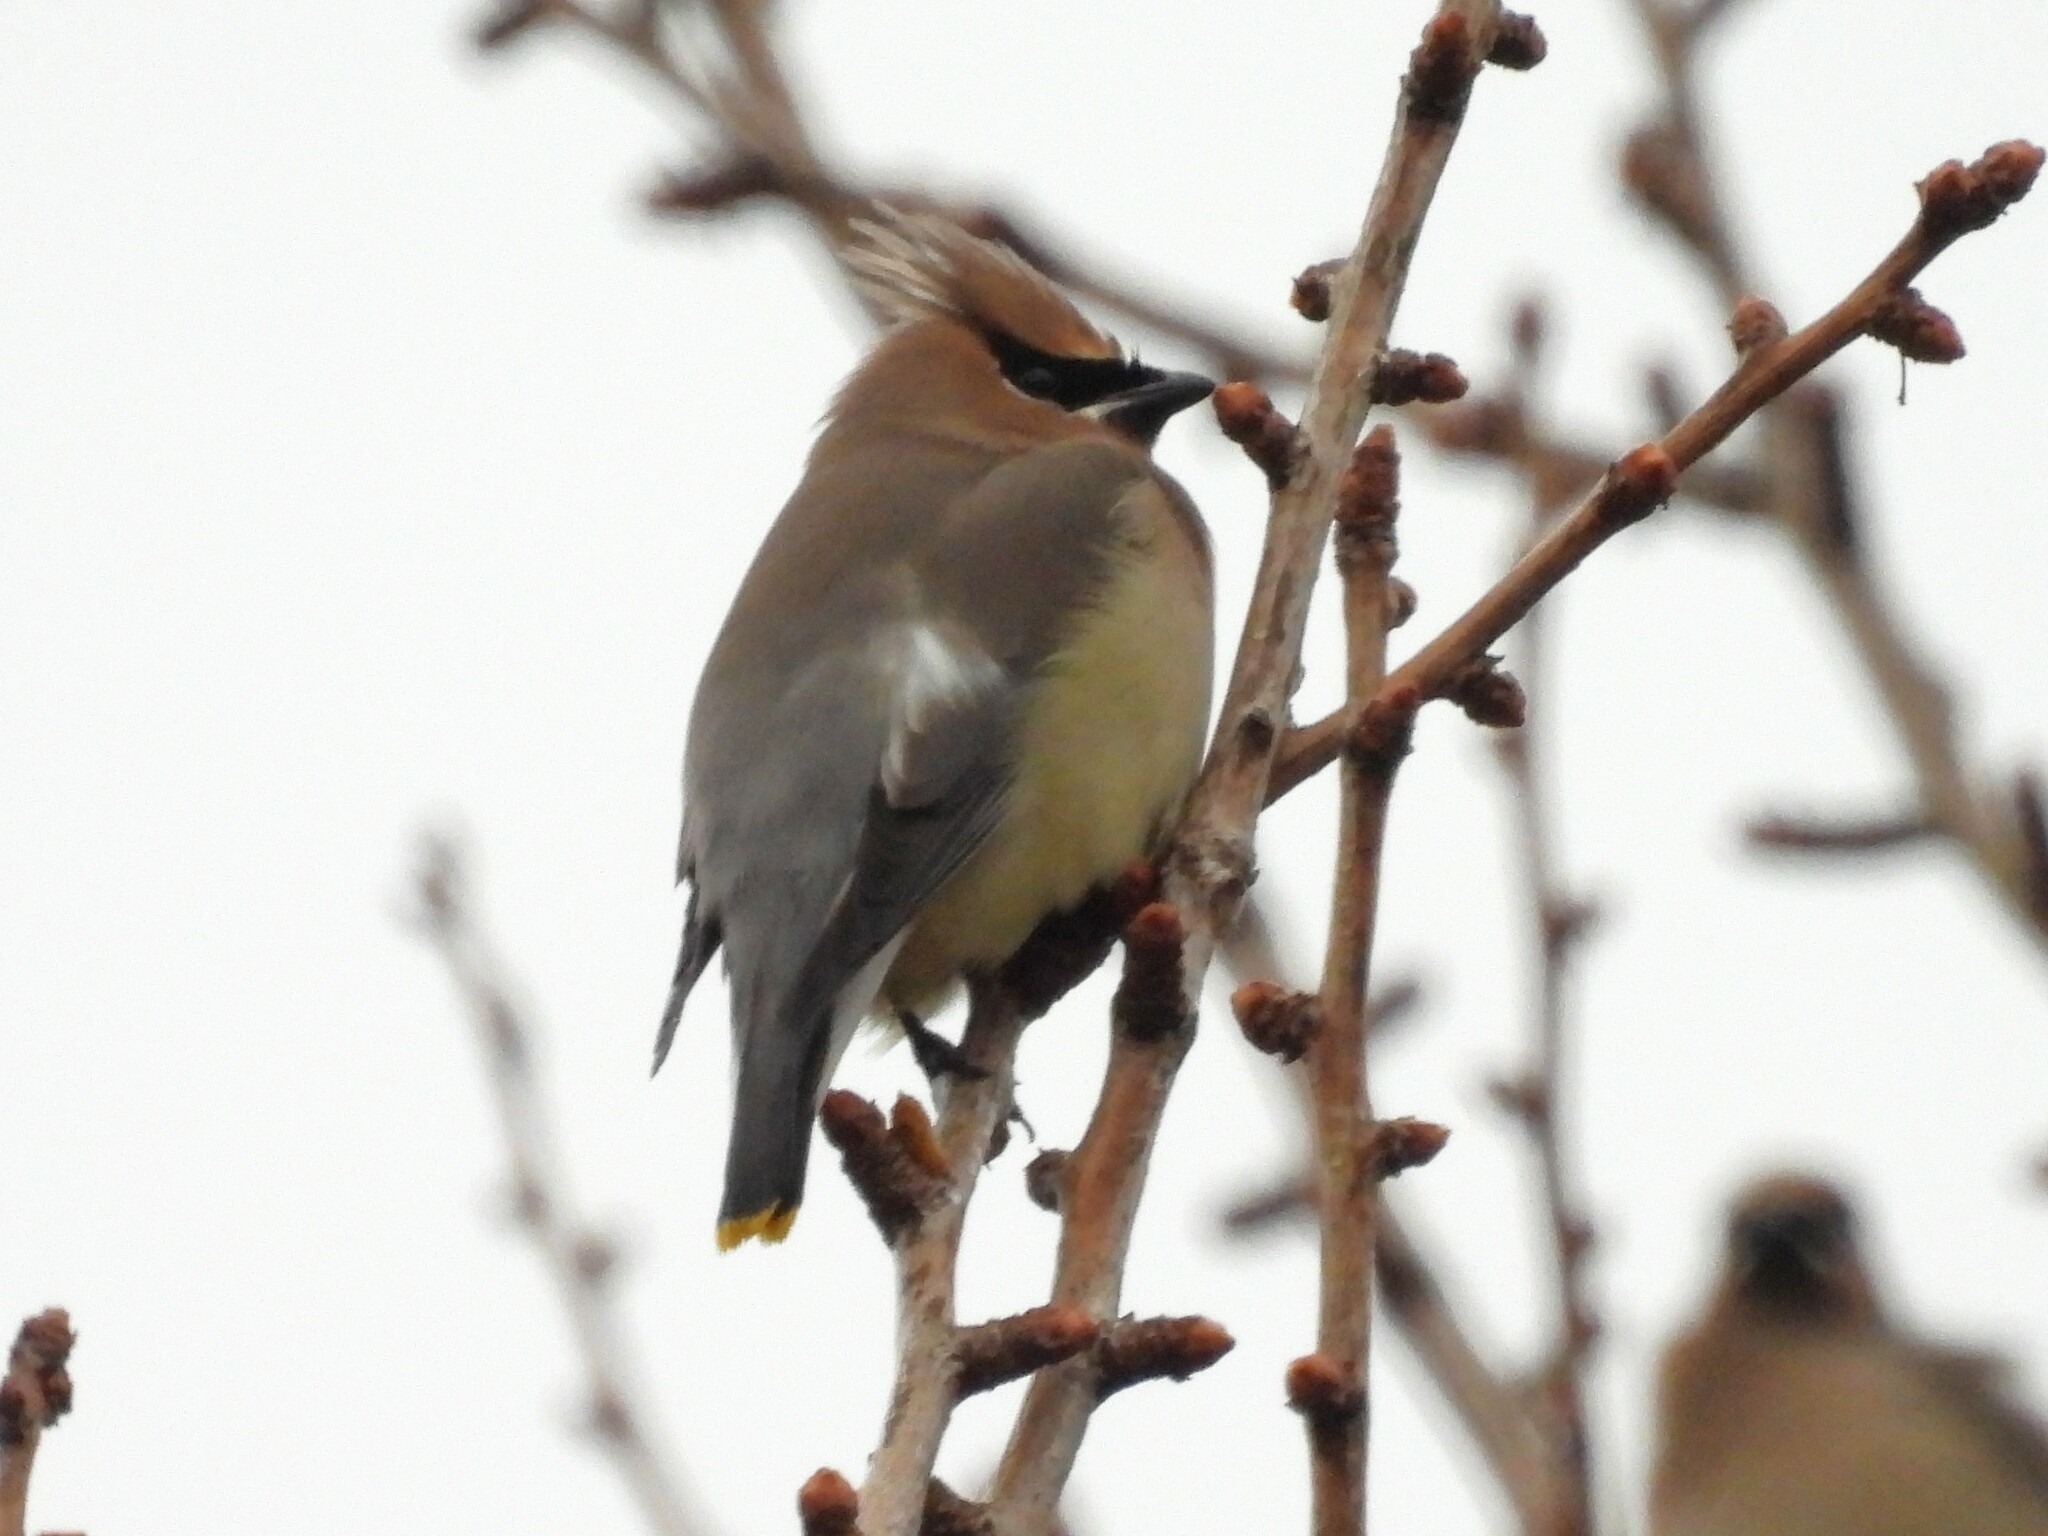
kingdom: Animalia
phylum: Chordata
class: Aves
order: Passeriformes
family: Bombycillidae
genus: Bombycilla
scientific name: Bombycilla cedrorum
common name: Cedar waxwing
